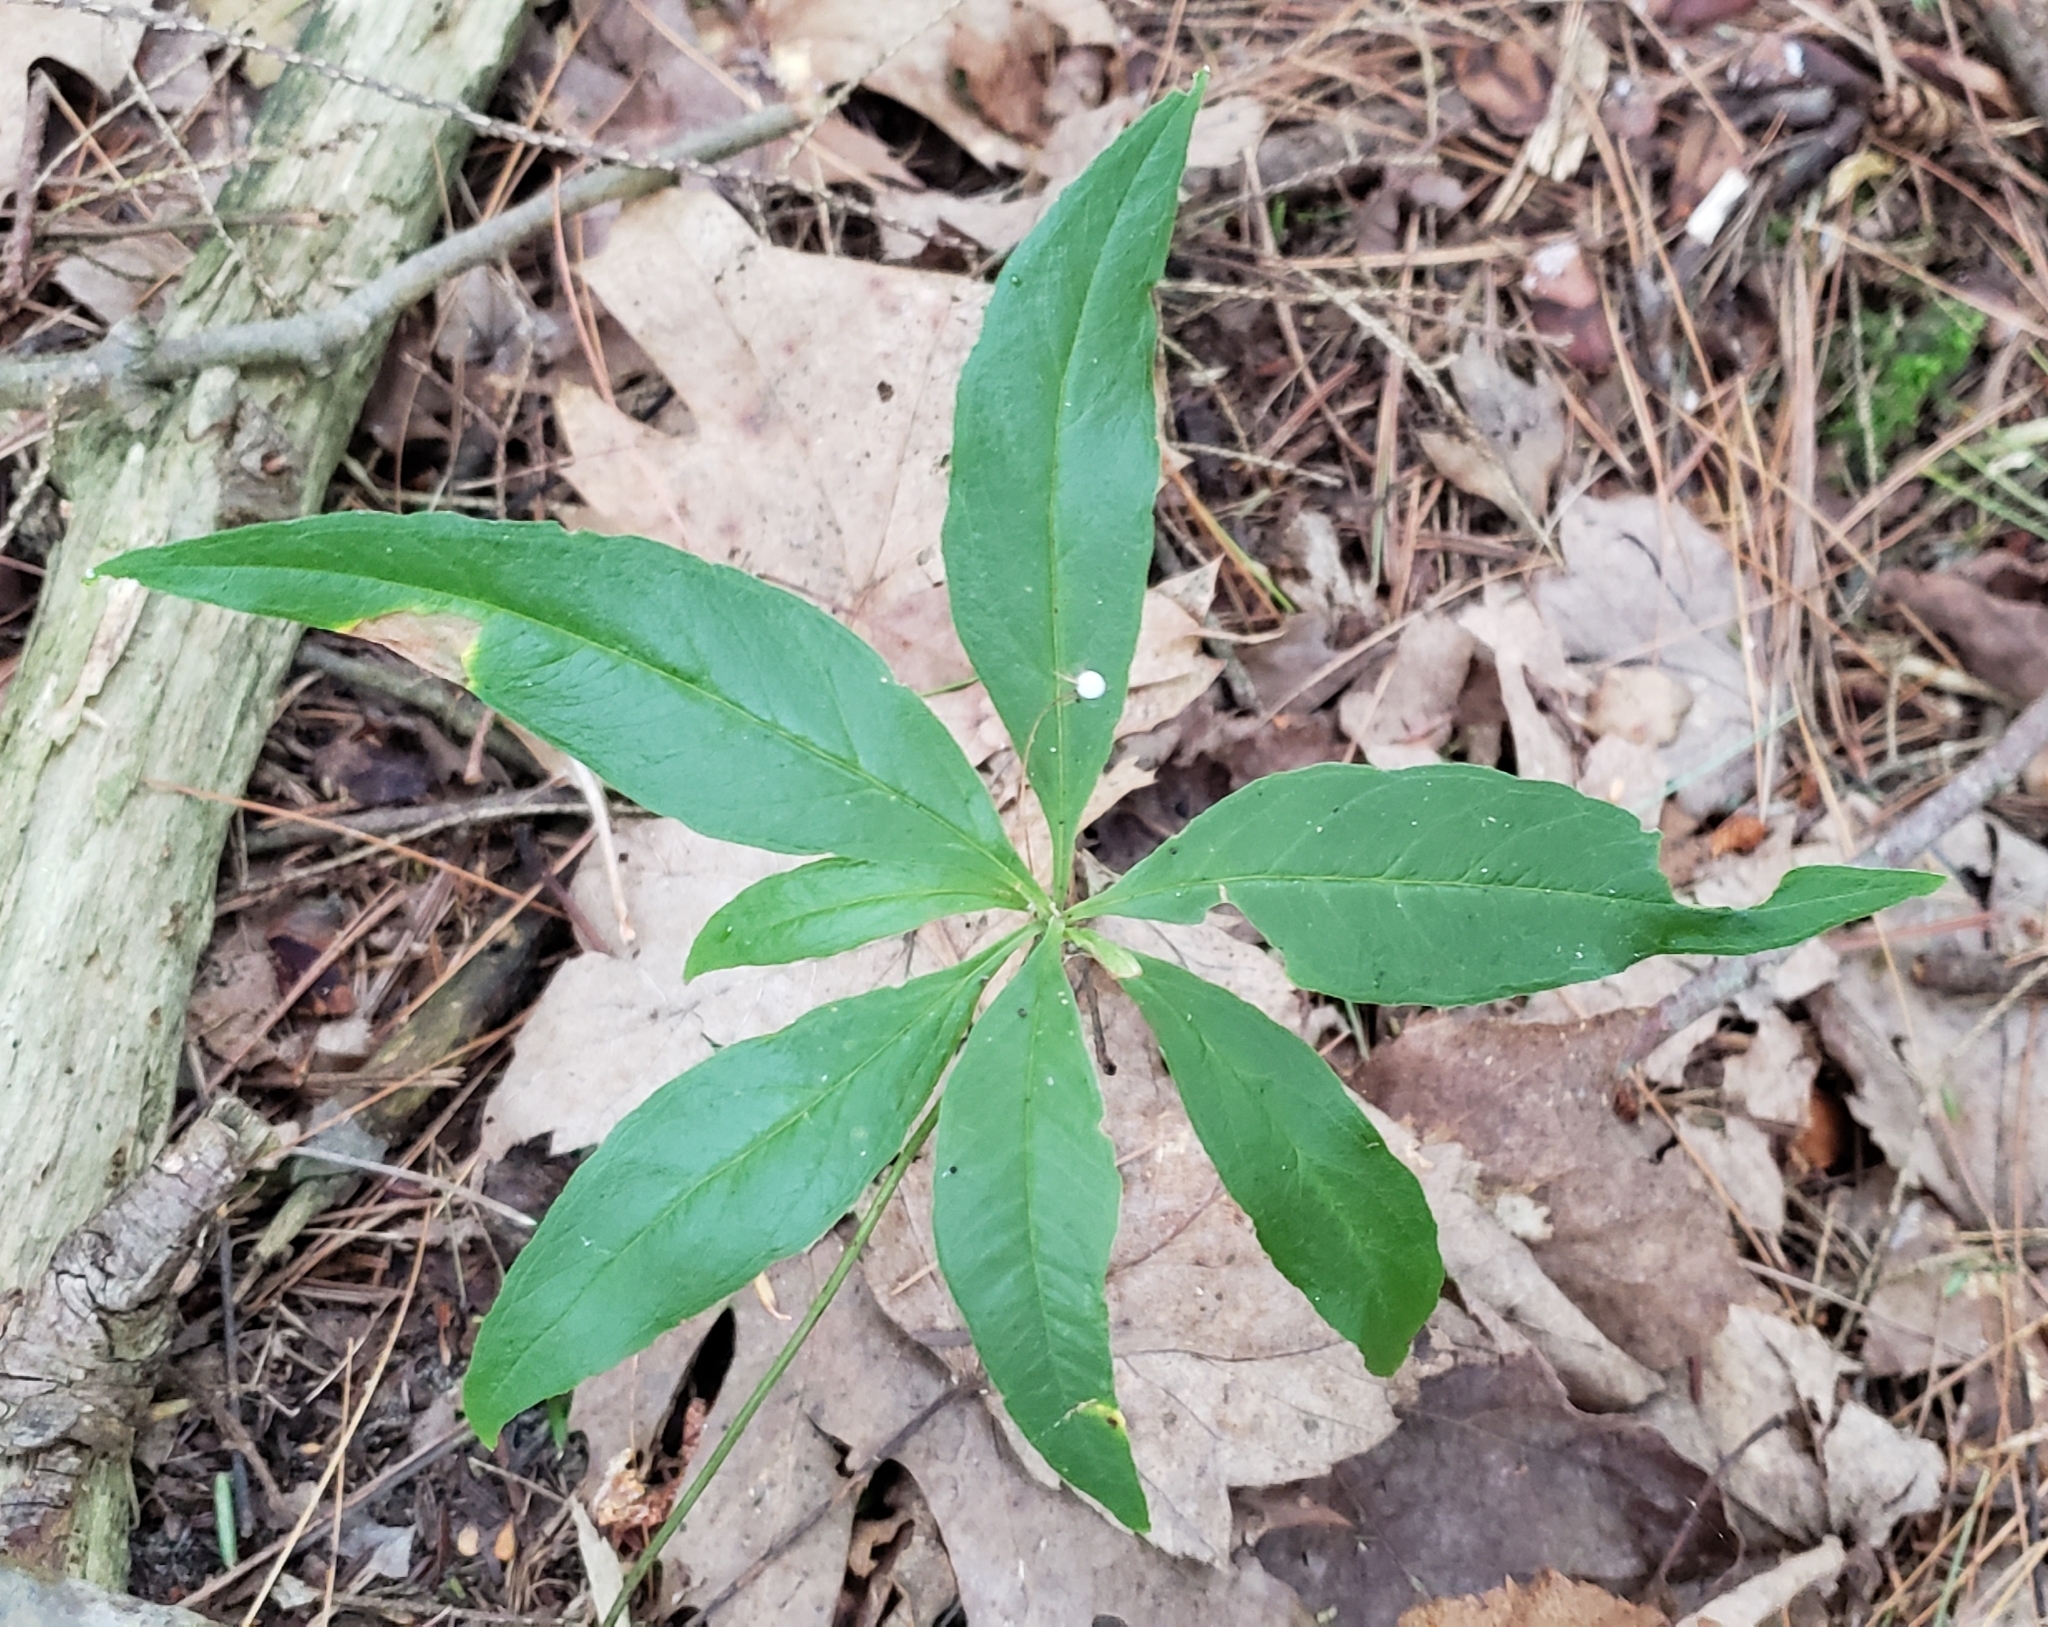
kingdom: Plantae
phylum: Tracheophyta
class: Magnoliopsida
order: Ericales
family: Primulaceae
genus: Lysimachia
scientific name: Lysimachia borealis
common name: American starflower
